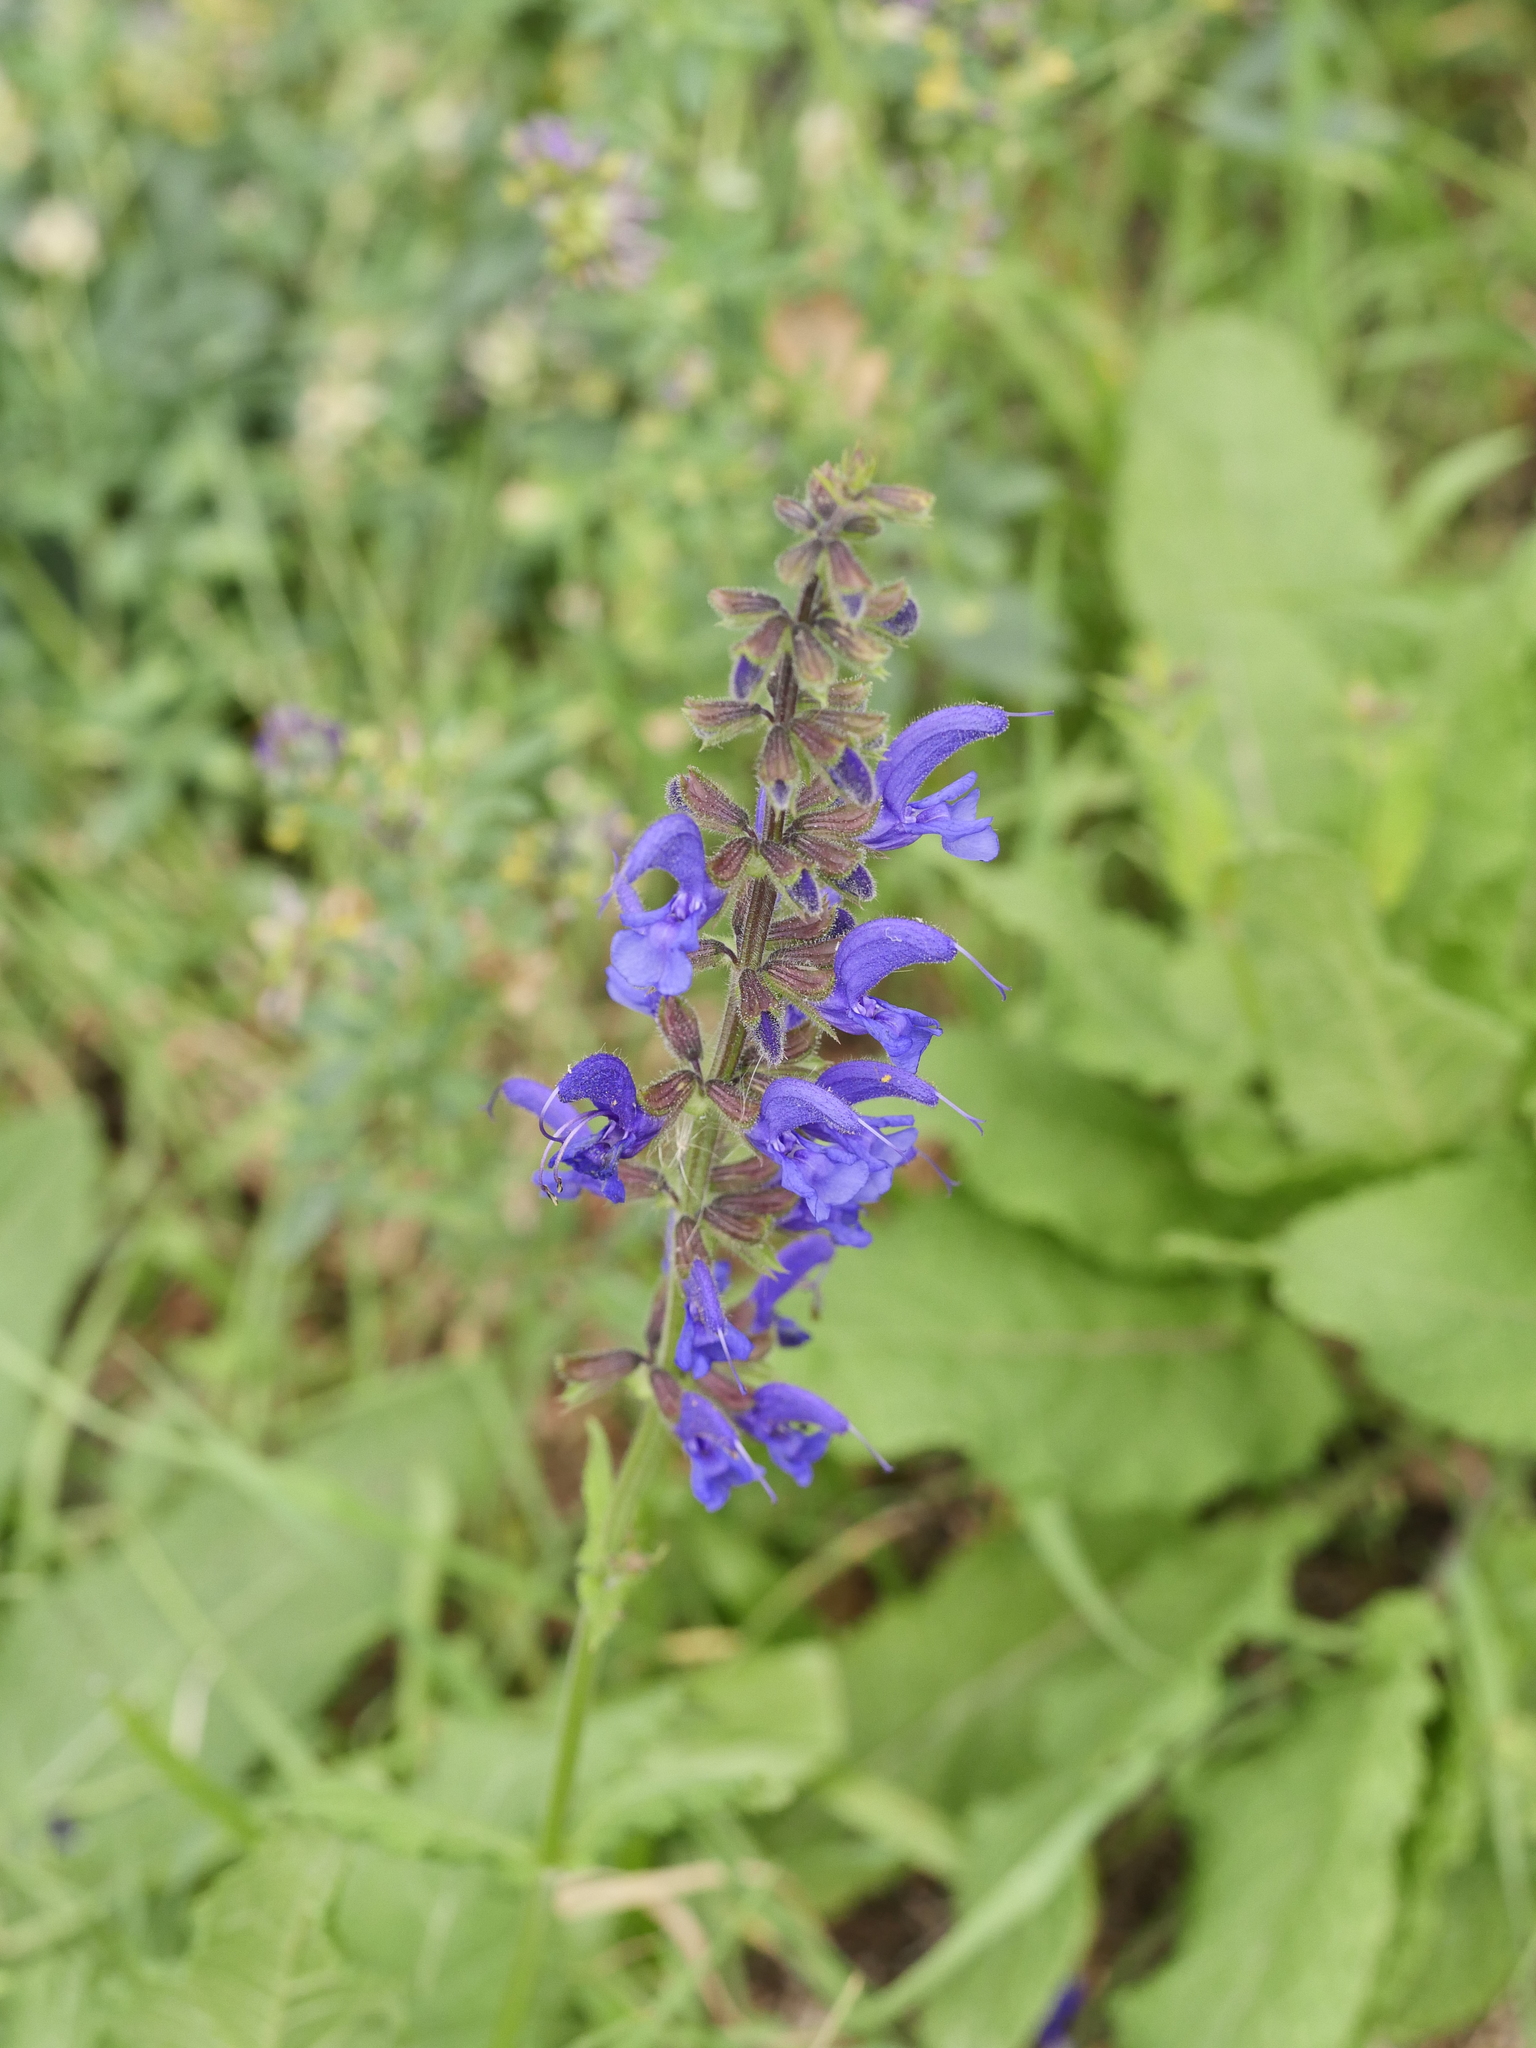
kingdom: Plantae
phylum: Tracheophyta
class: Magnoliopsida
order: Lamiales
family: Lamiaceae
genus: Salvia
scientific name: Salvia pratensis
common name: Meadow sage
